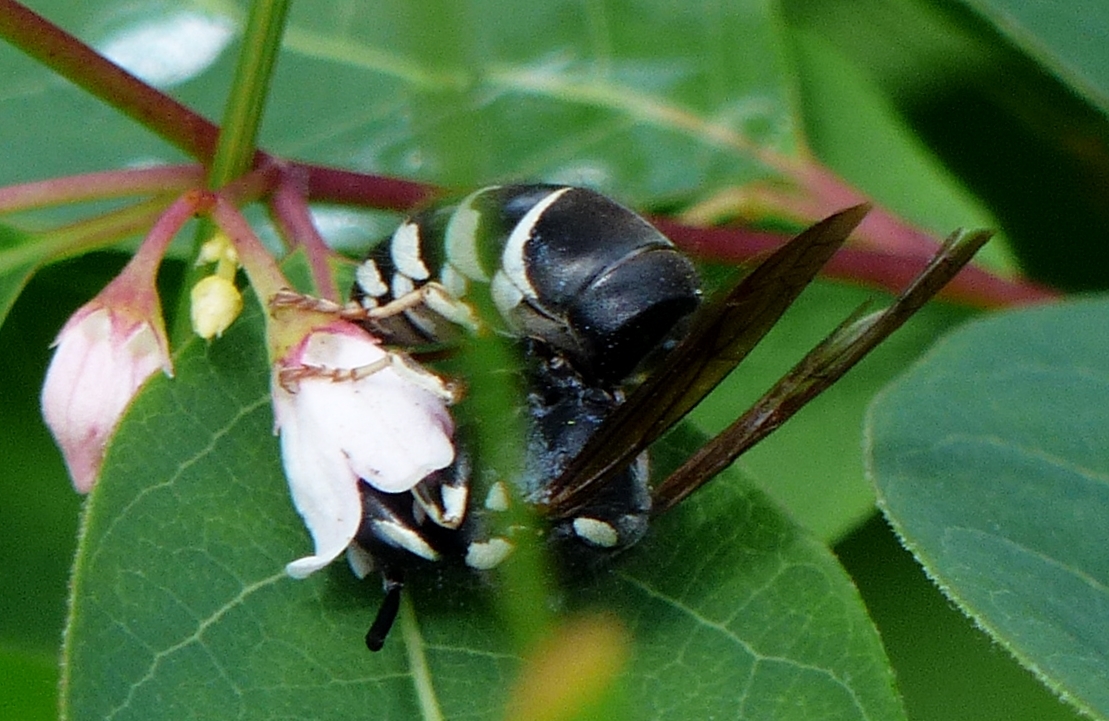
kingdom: Animalia
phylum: Arthropoda
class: Insecta
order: Hymenoptera
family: Vespidae
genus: Vespula
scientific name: Vespula consobrina
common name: Blackjacket
